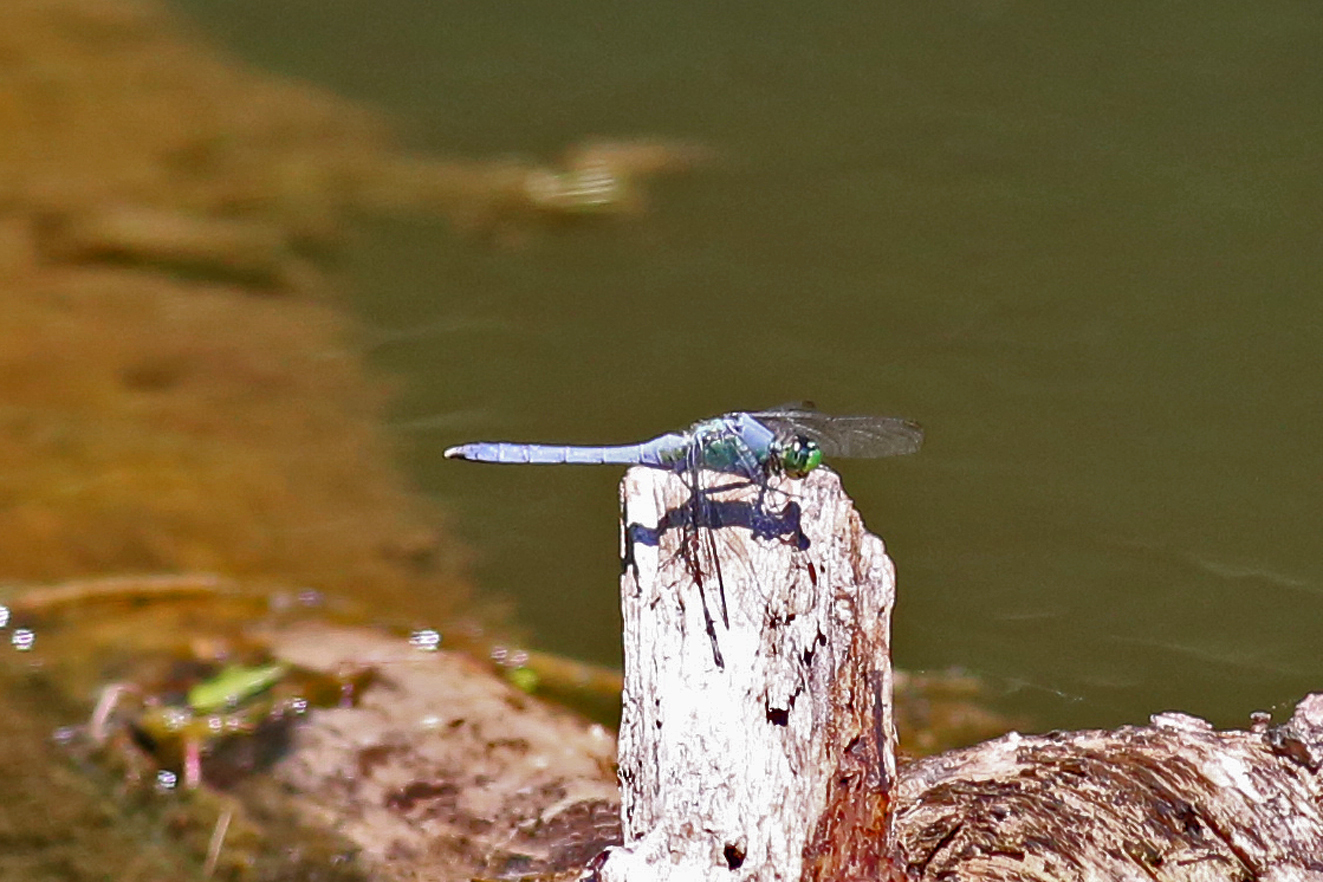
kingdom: Animalia
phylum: Arthropoda
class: Insecta
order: Odonata
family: Libellulidae
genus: Erythemis
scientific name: Erythemis simplicicollis
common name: Eastern pondhawk
